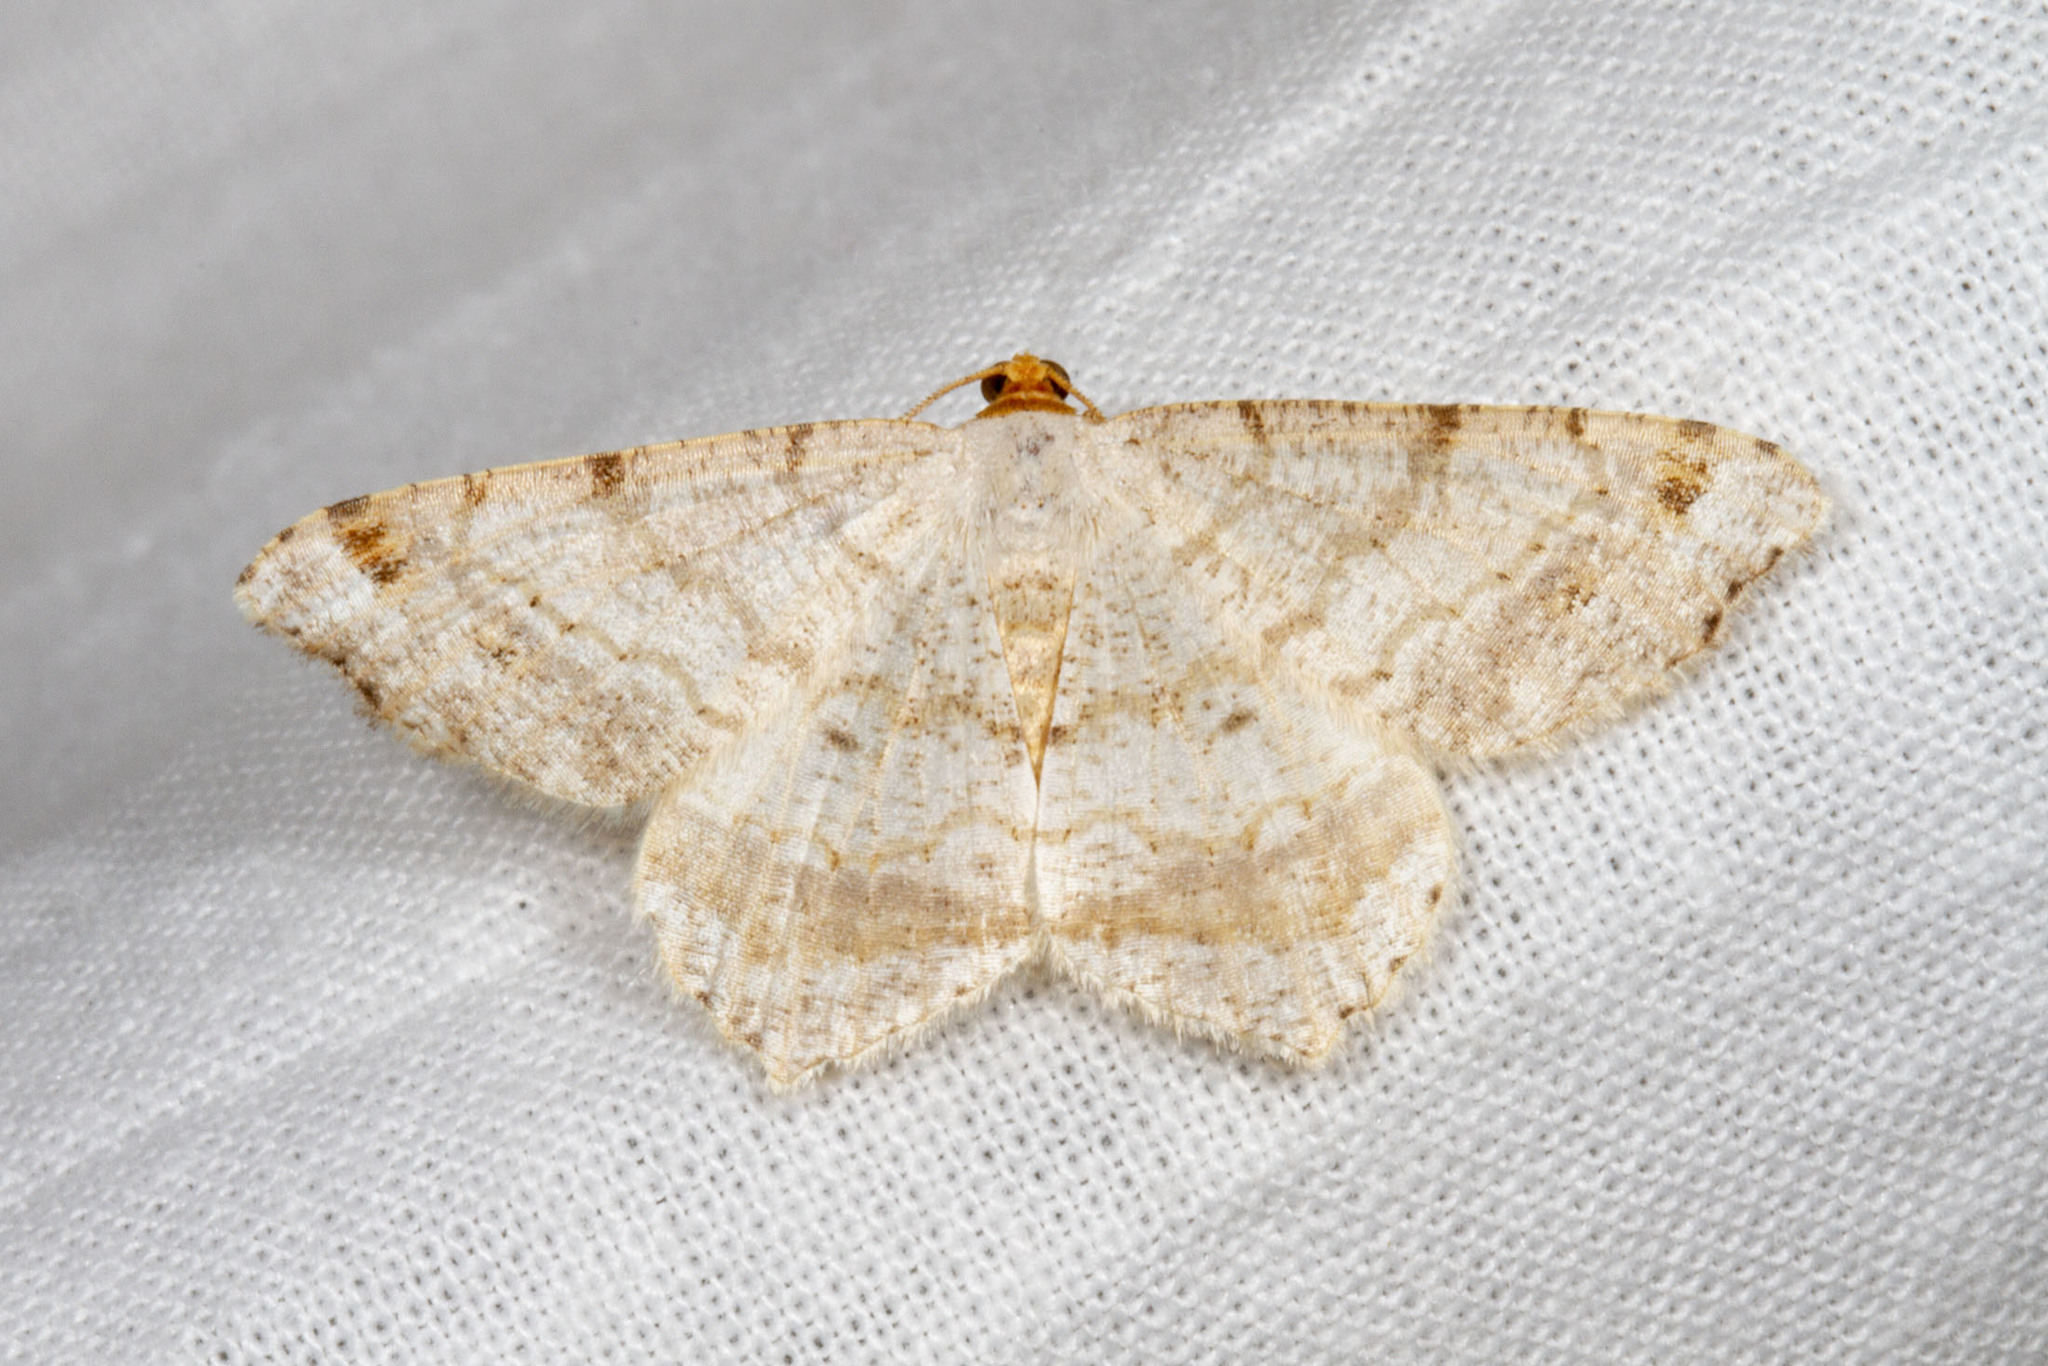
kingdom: Animalia
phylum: Arthropoda
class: Insecta
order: Lepidoptera
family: Geometridae
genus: Macaria
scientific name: Macaria bisignata
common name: Red-headed inchworm
